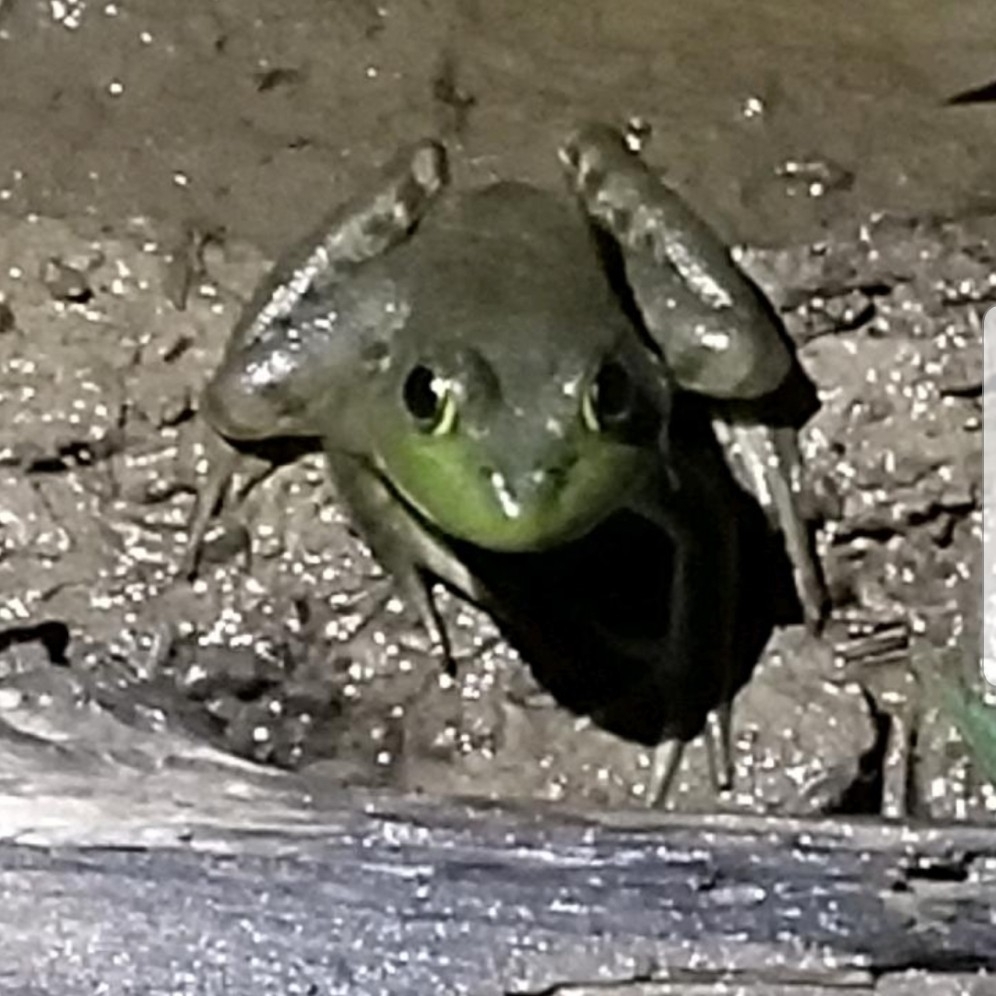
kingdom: Animalia
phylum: Chordata
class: Amphibia
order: Anura
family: Ranidae
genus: Lithobates
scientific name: Lithobates catesbeianus
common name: American bullfrog
